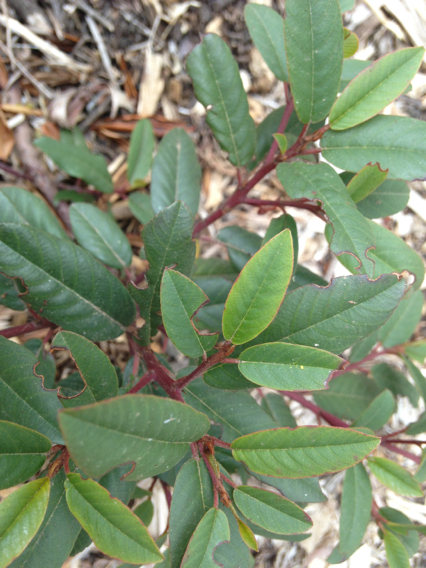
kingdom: Plantae
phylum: Tracheophyta
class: Magnoliopsida
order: Rosales
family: Rhamnaceae
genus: Frangula
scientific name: Frangula californica
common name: California buckthorn
